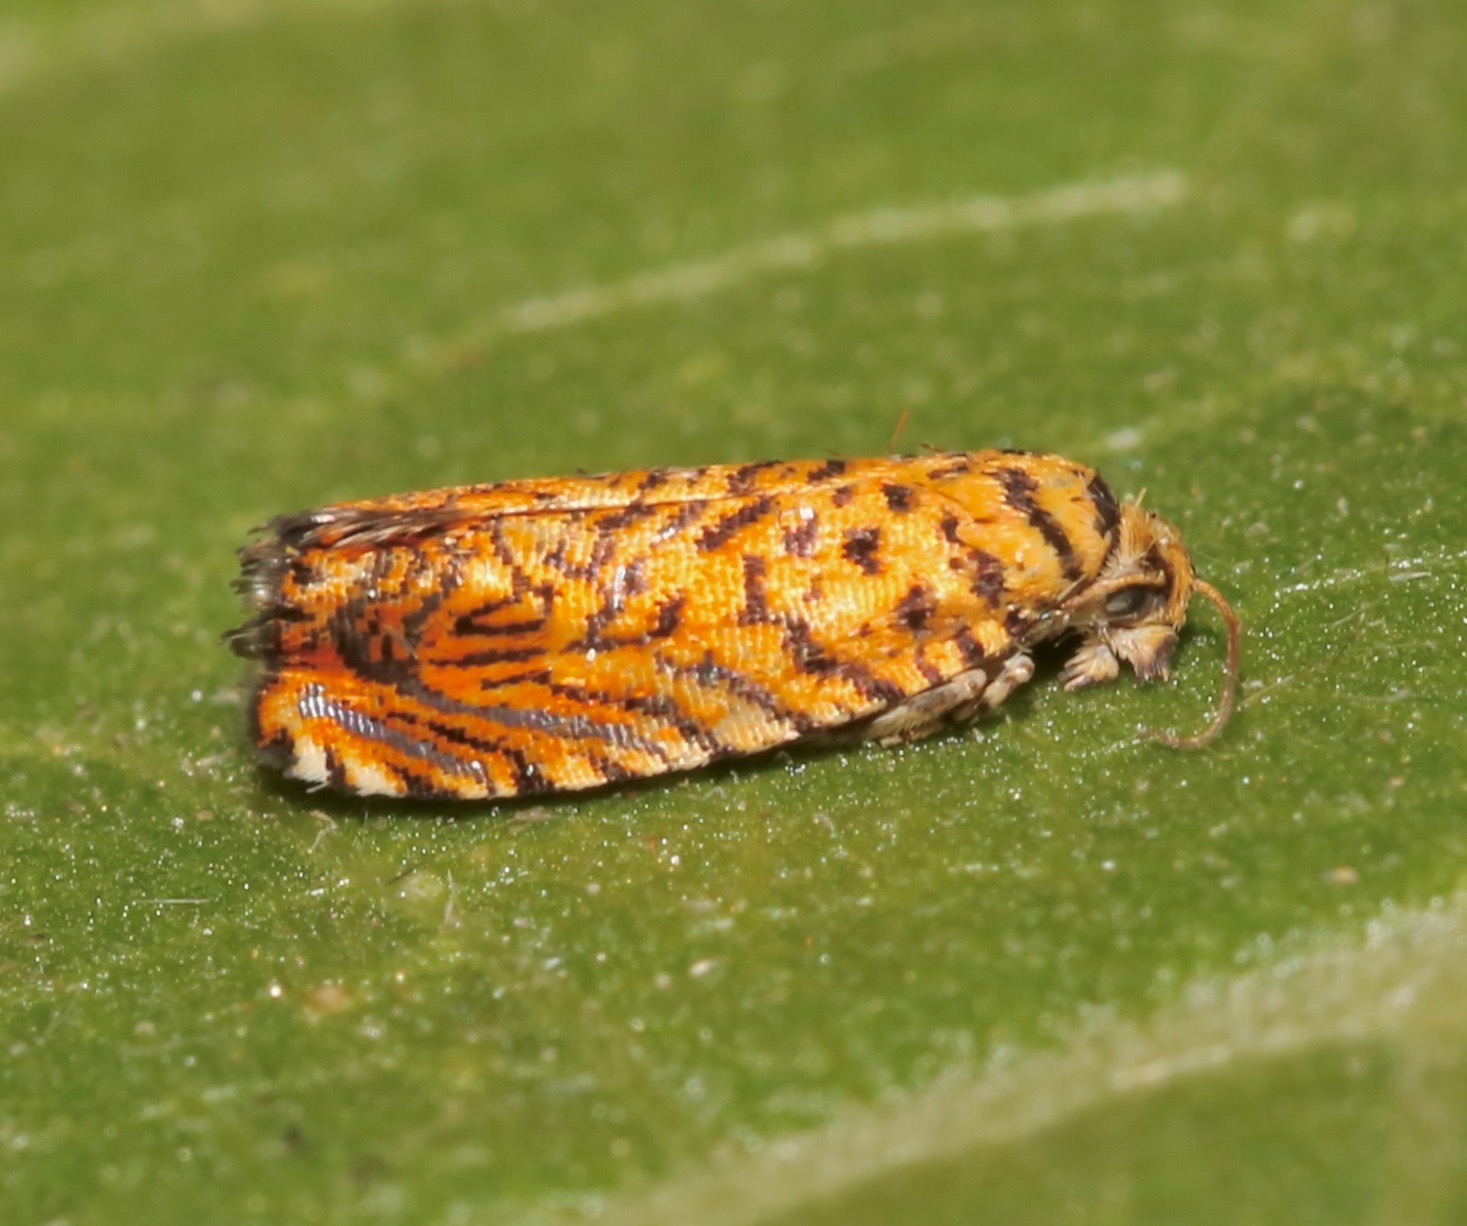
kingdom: Animalia
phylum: Arthropoda
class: Insecta
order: Lepidoptera
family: Tortricidae
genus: Dichrorampha
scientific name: Dichrorampha flinti
